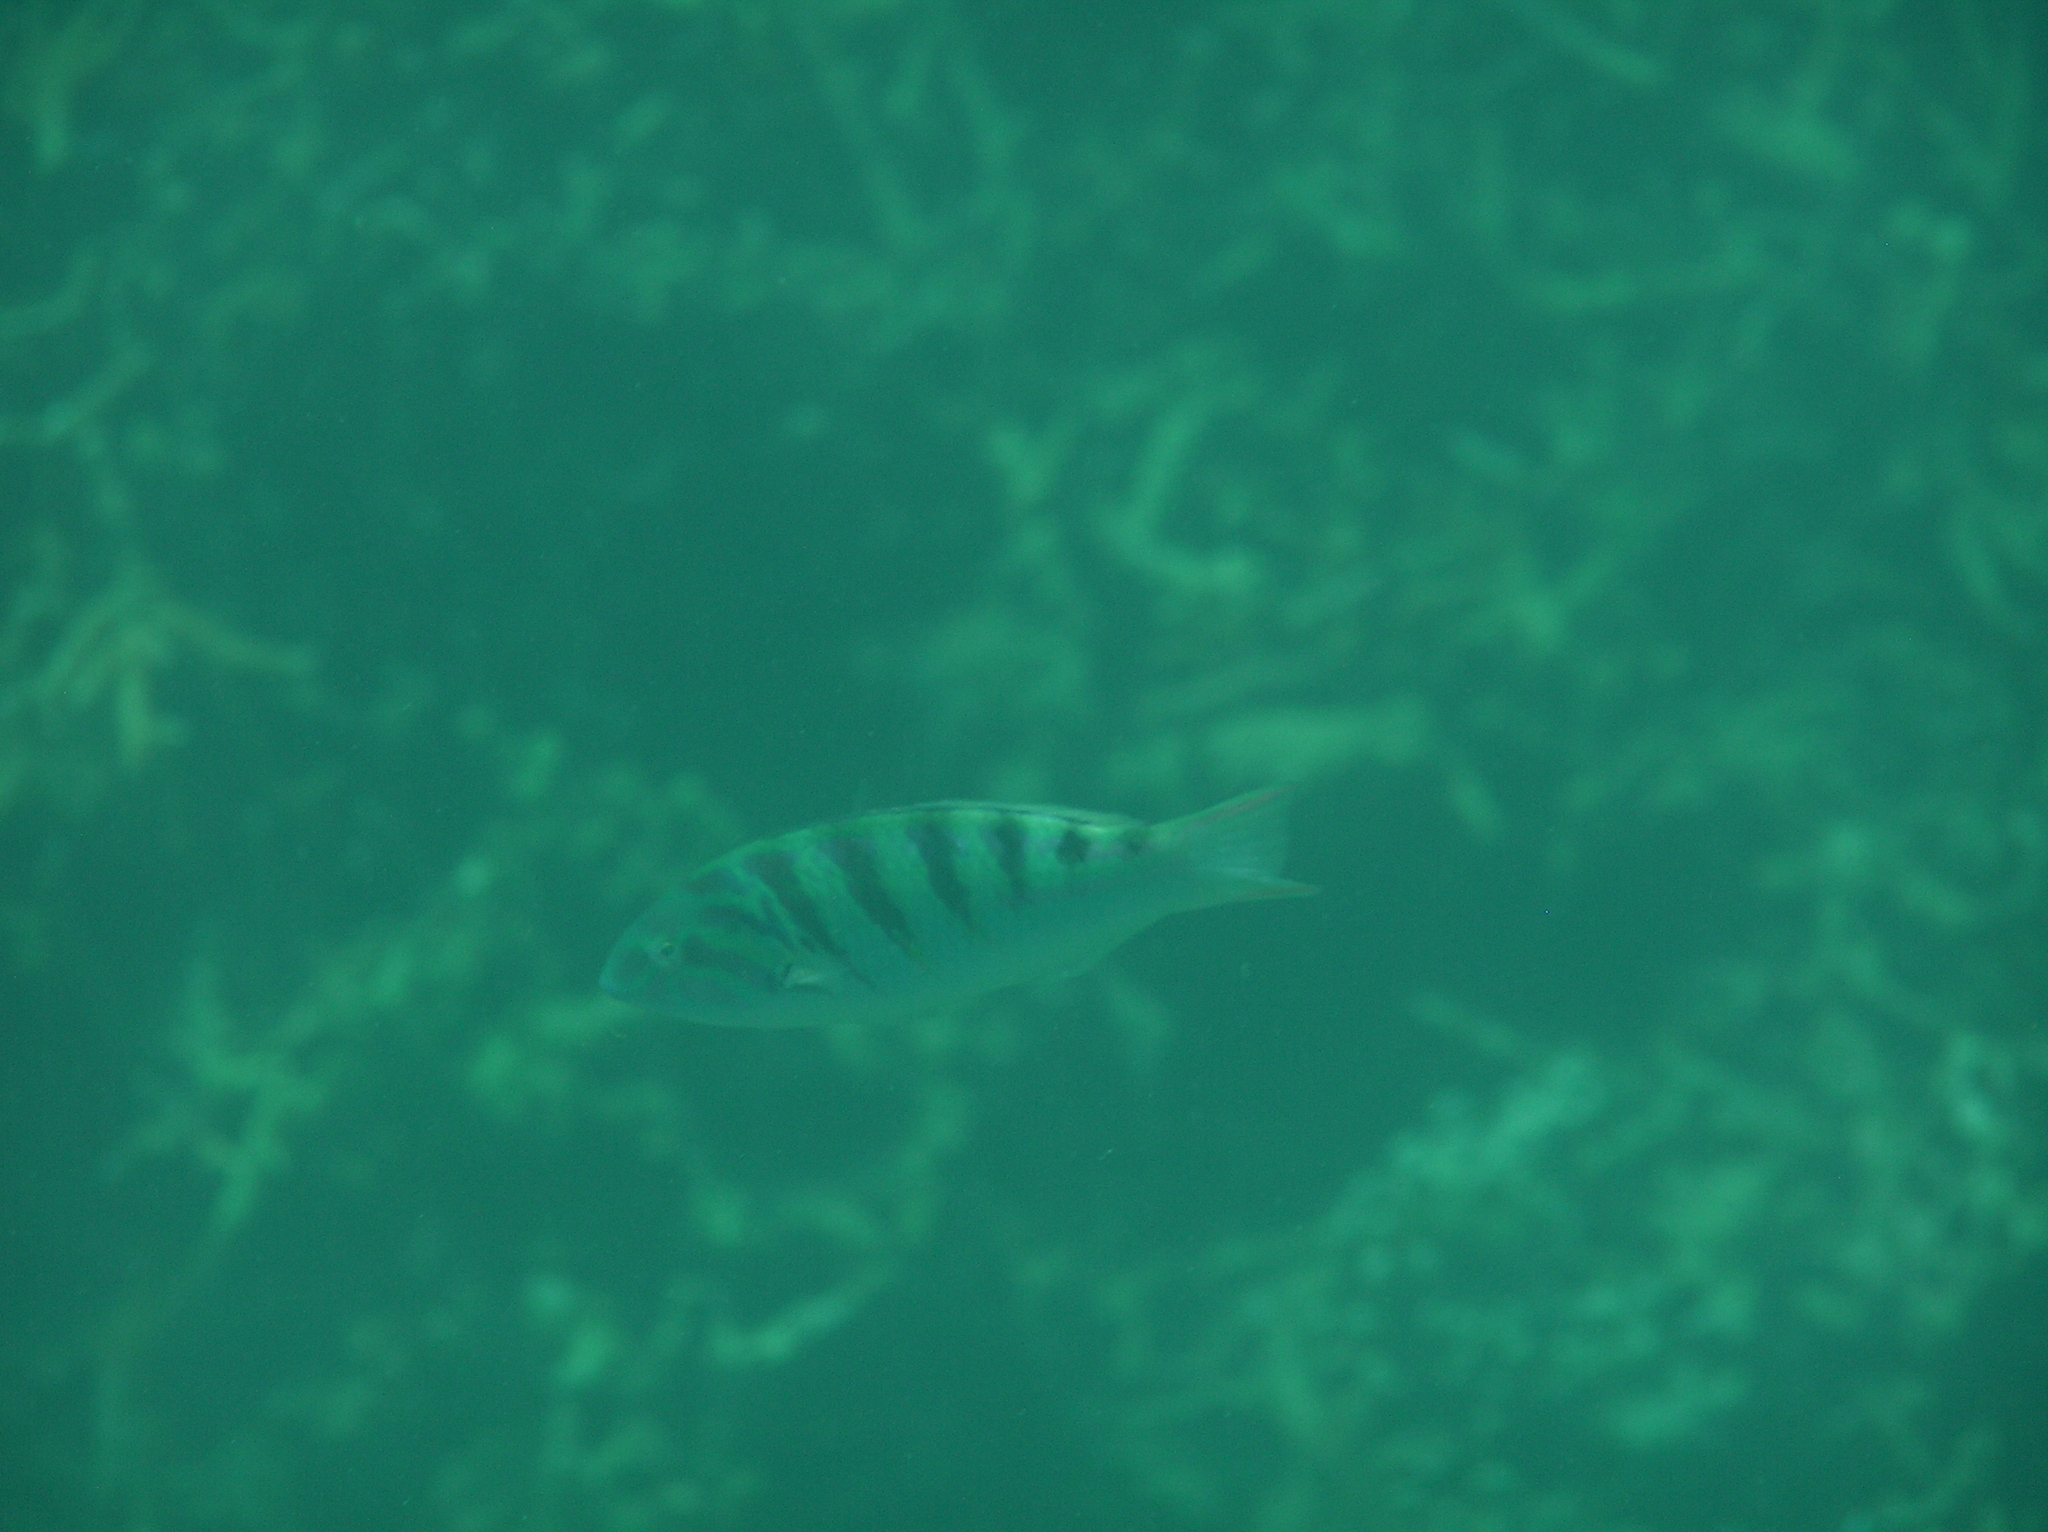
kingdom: Animalia
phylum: Chordata
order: Perciformes
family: Labridae
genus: Thalassoma
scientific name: Thalassoma hardwicke
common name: Sixbar wrasse
